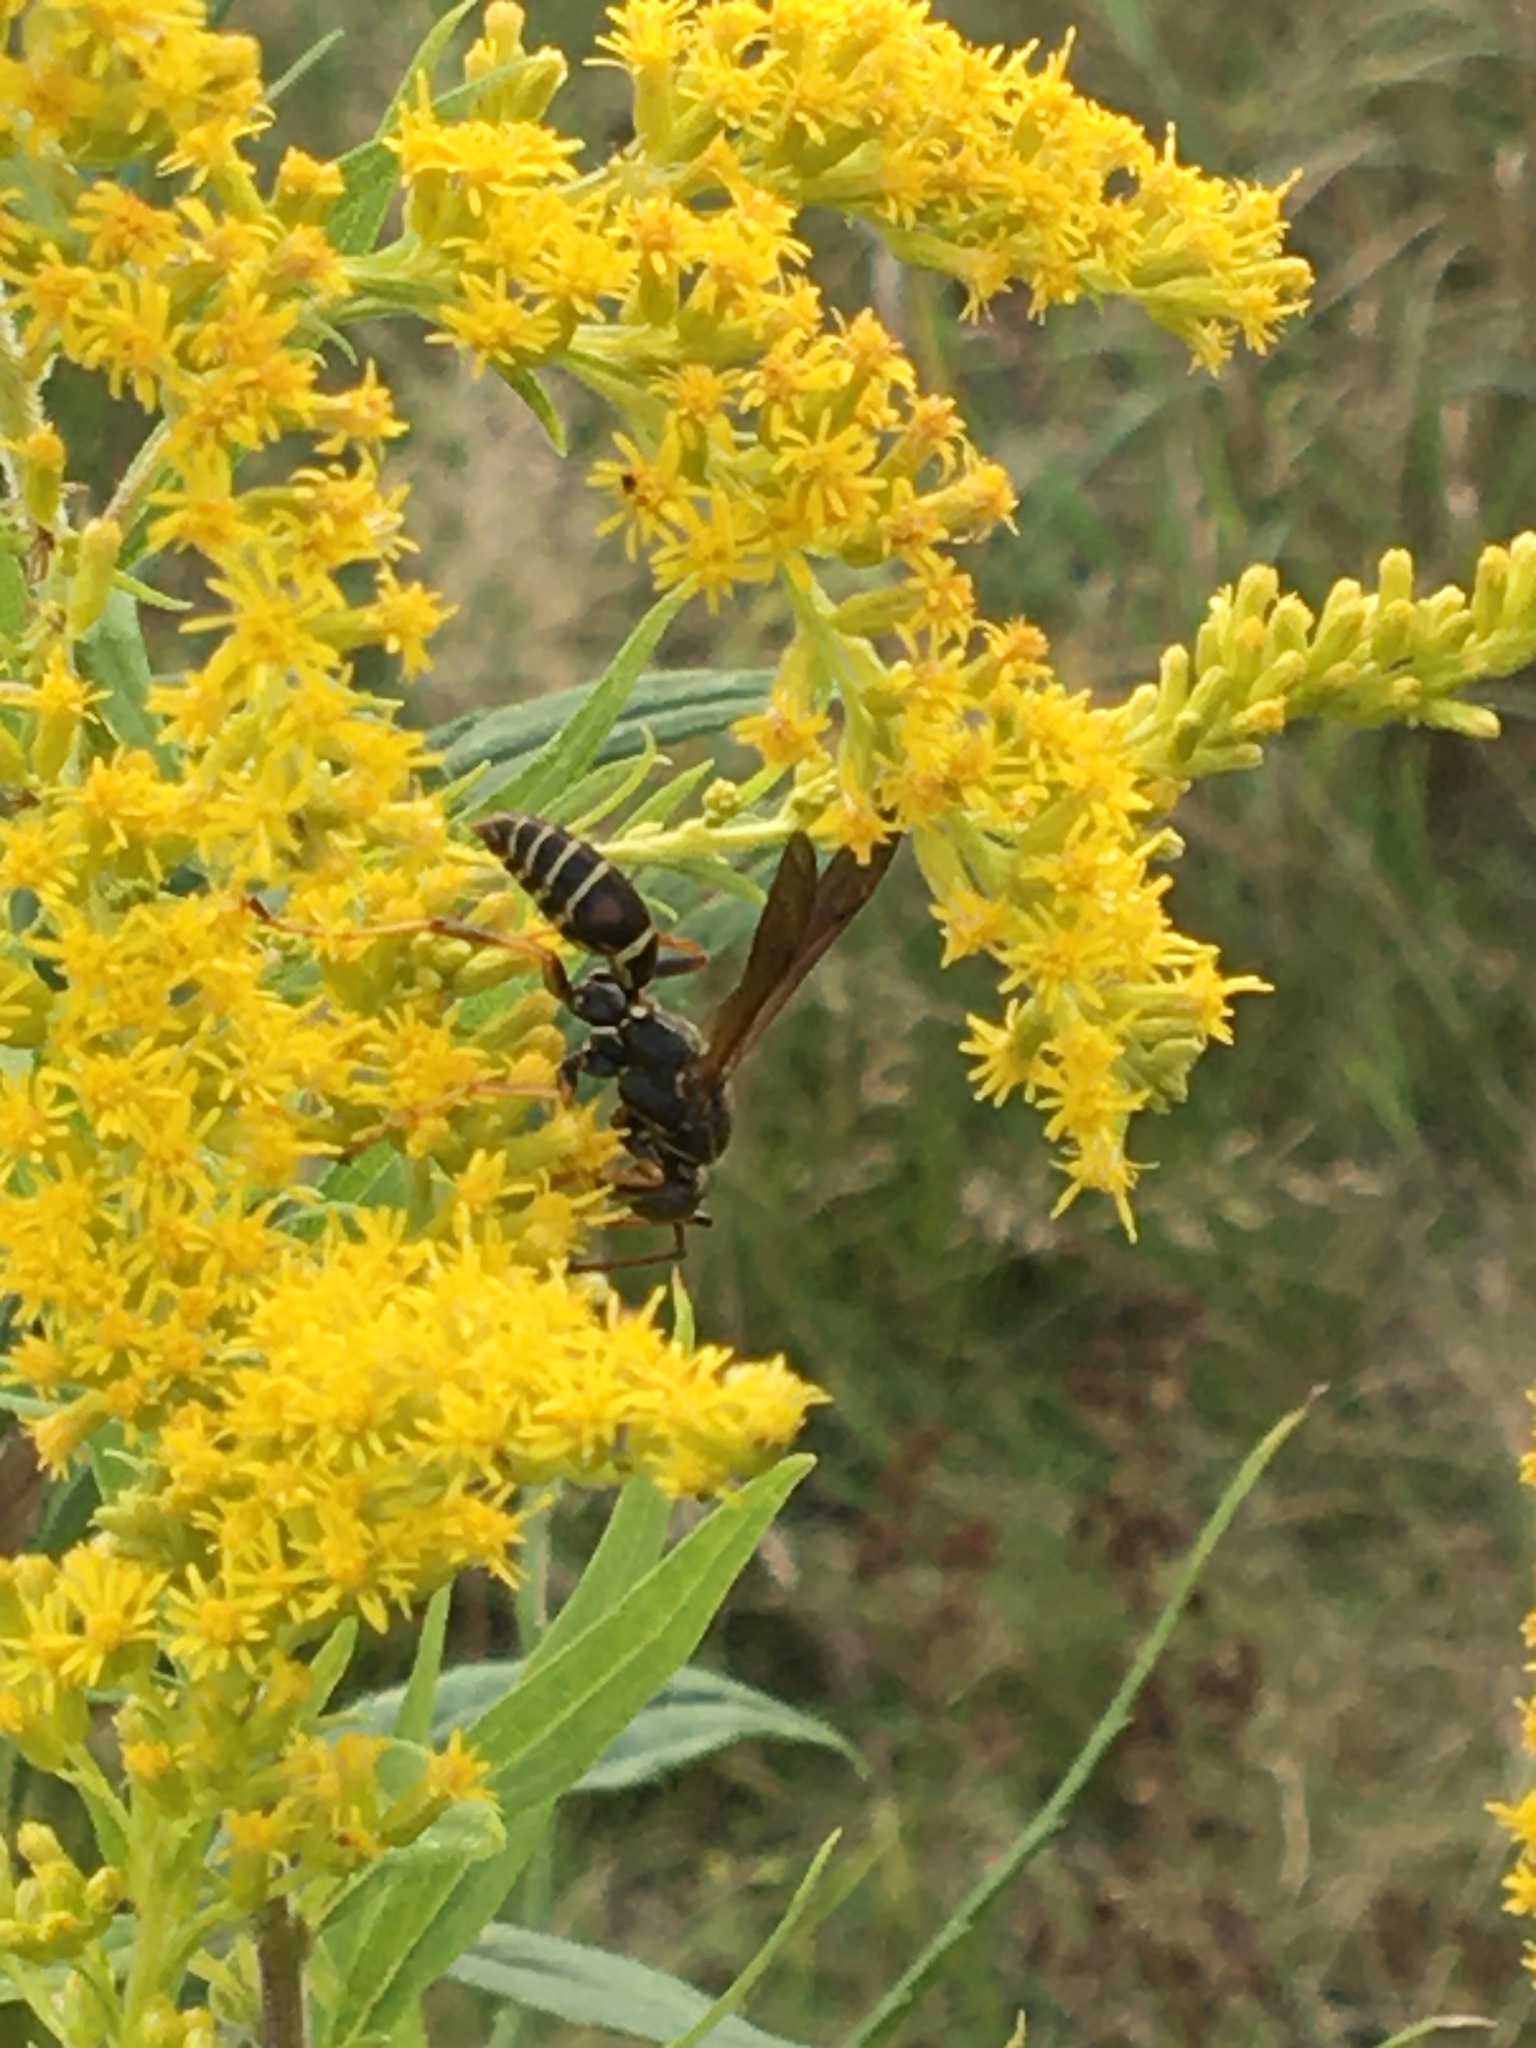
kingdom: Animalia
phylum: Arthropoda
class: Insecta
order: Hymenoptera
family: Eumenidae
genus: Polistes
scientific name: Polistes fuscatus
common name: Dark paper wasp
